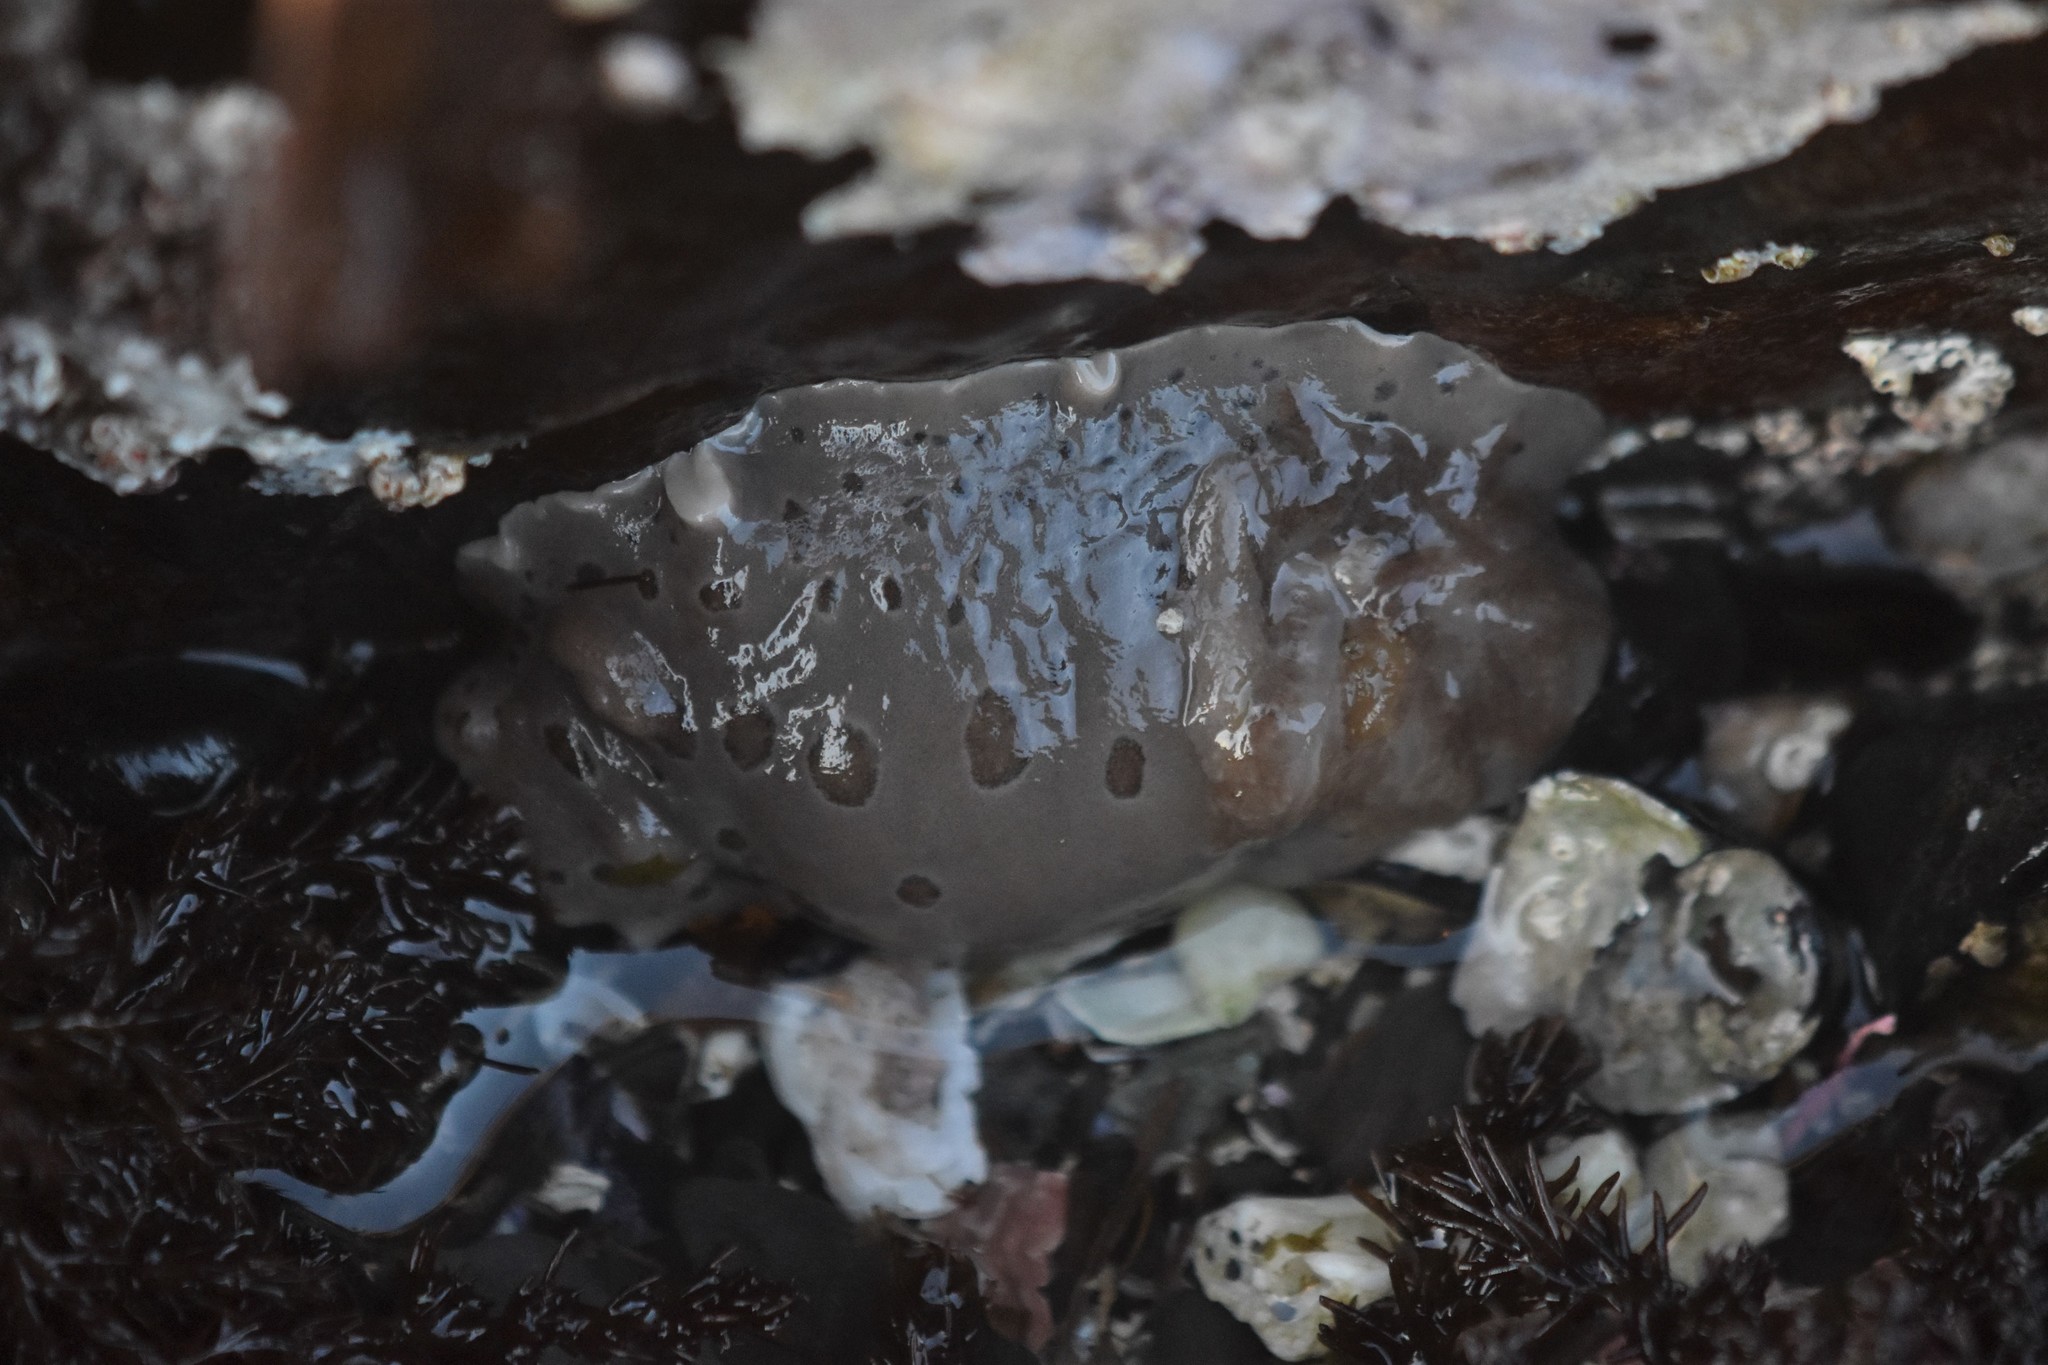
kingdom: Animalia
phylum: Mollusca
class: Gastropoda
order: Nudibranchia
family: Discodorididae
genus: Diaulula
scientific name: Diaulula odonoghuei
